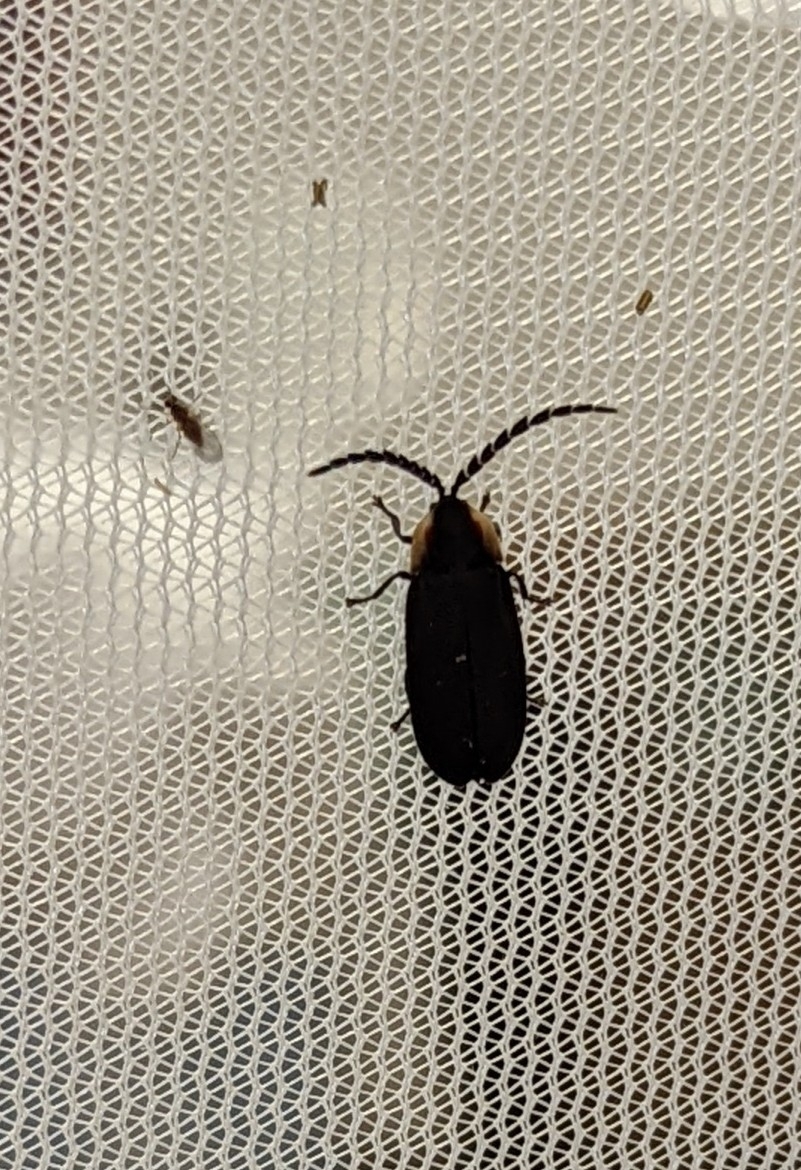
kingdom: Animalia
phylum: Arthropoda
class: Insecta
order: Coleoptera
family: Lampyridae
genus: Lucidota
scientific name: Lucidota atra
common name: Black firefly
